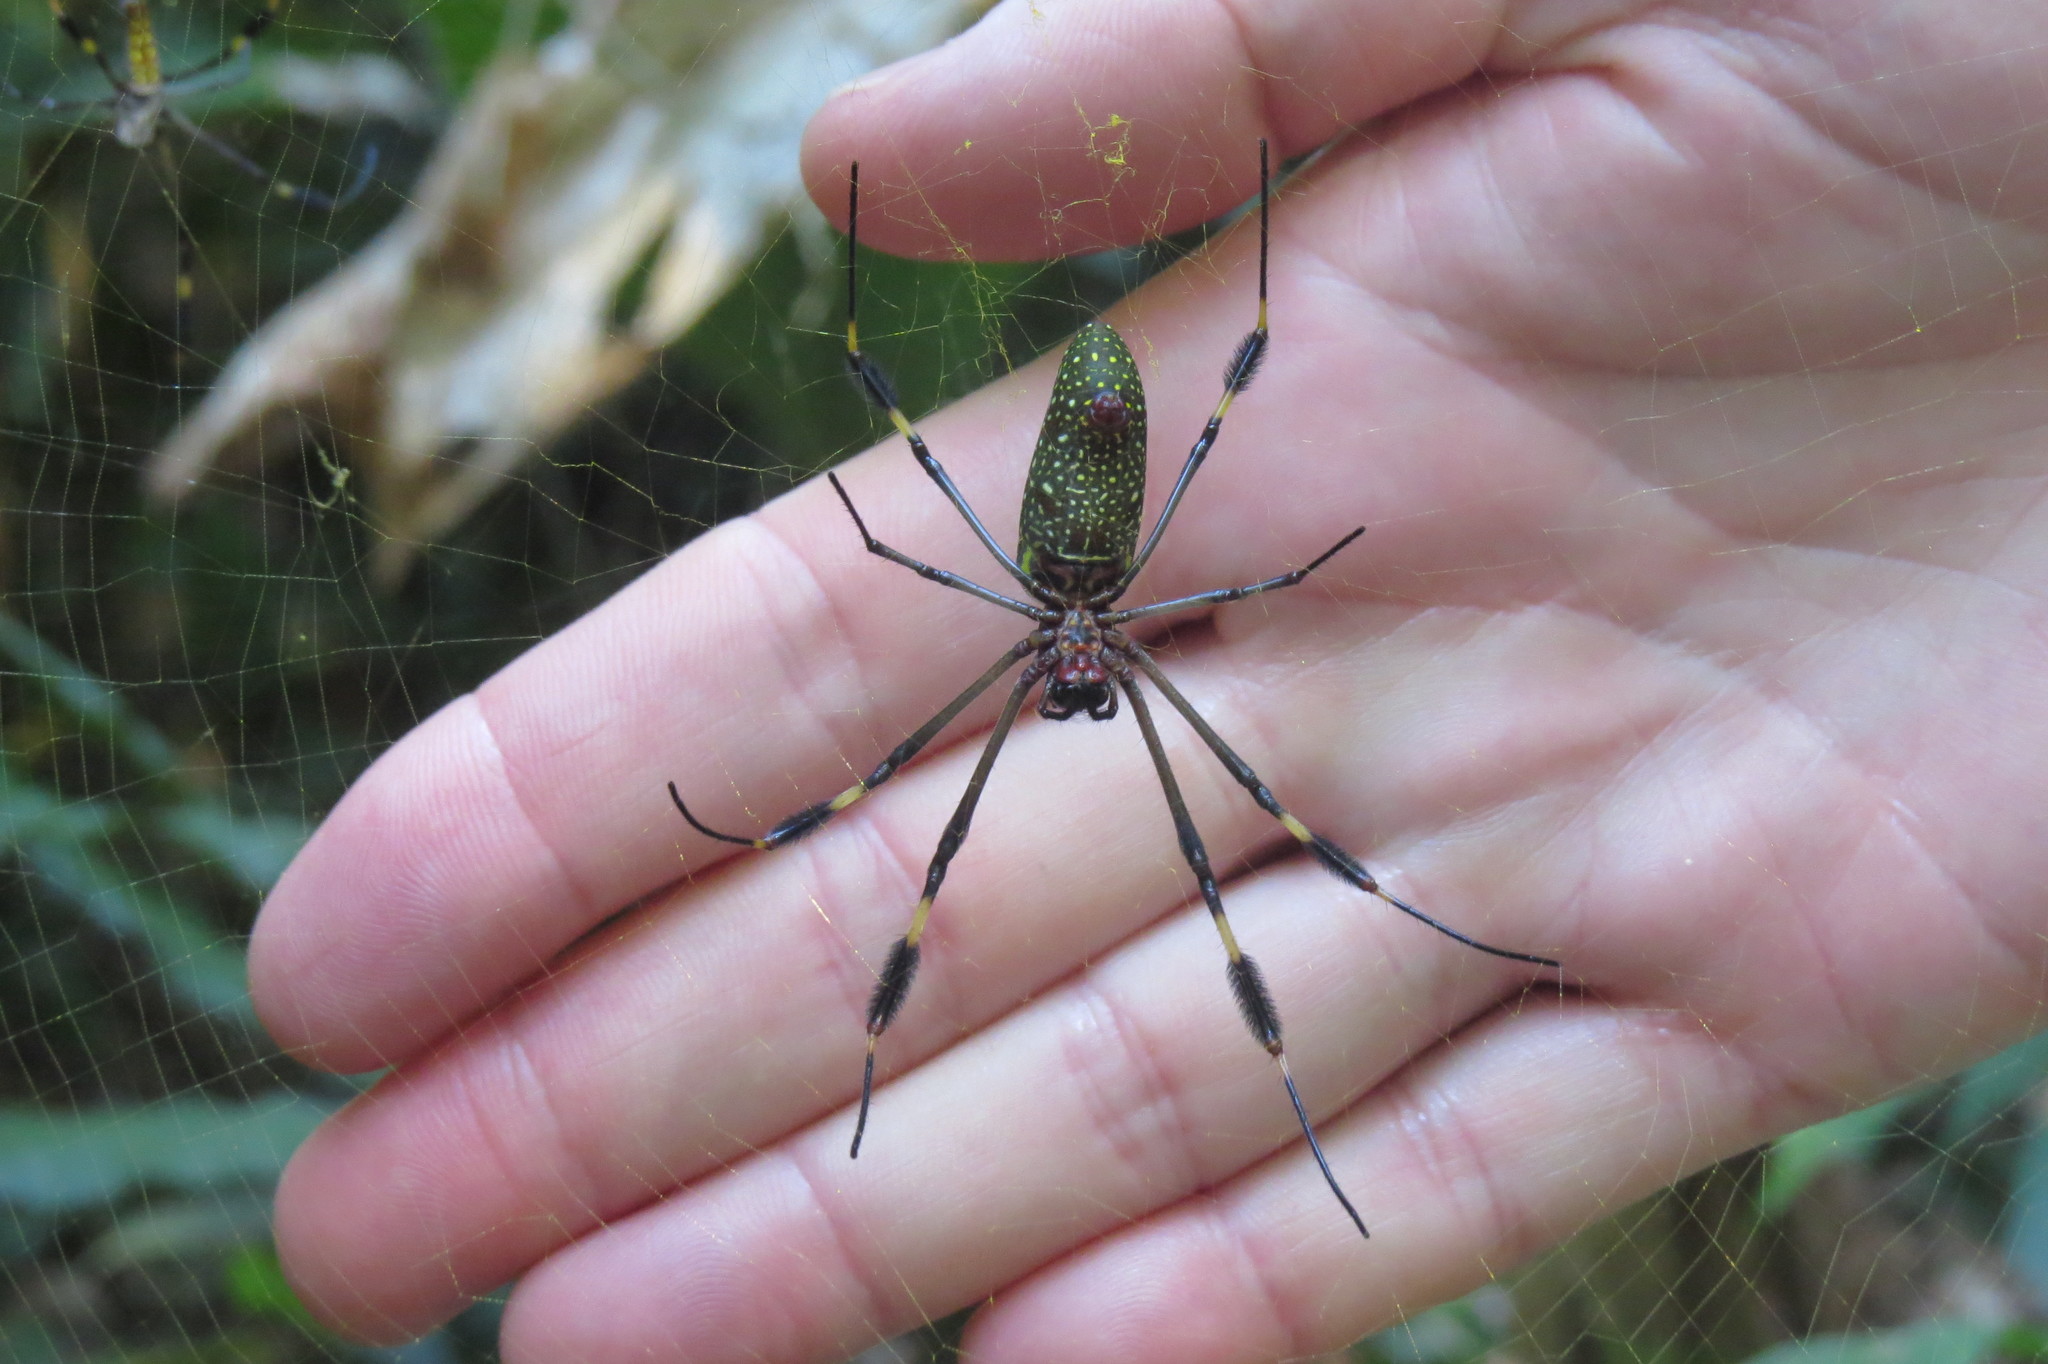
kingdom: Animalia
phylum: Arthropoda
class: Arachnida
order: Araneae
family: Araneidae
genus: Trichonephila
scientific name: Trichonephila clavipes
